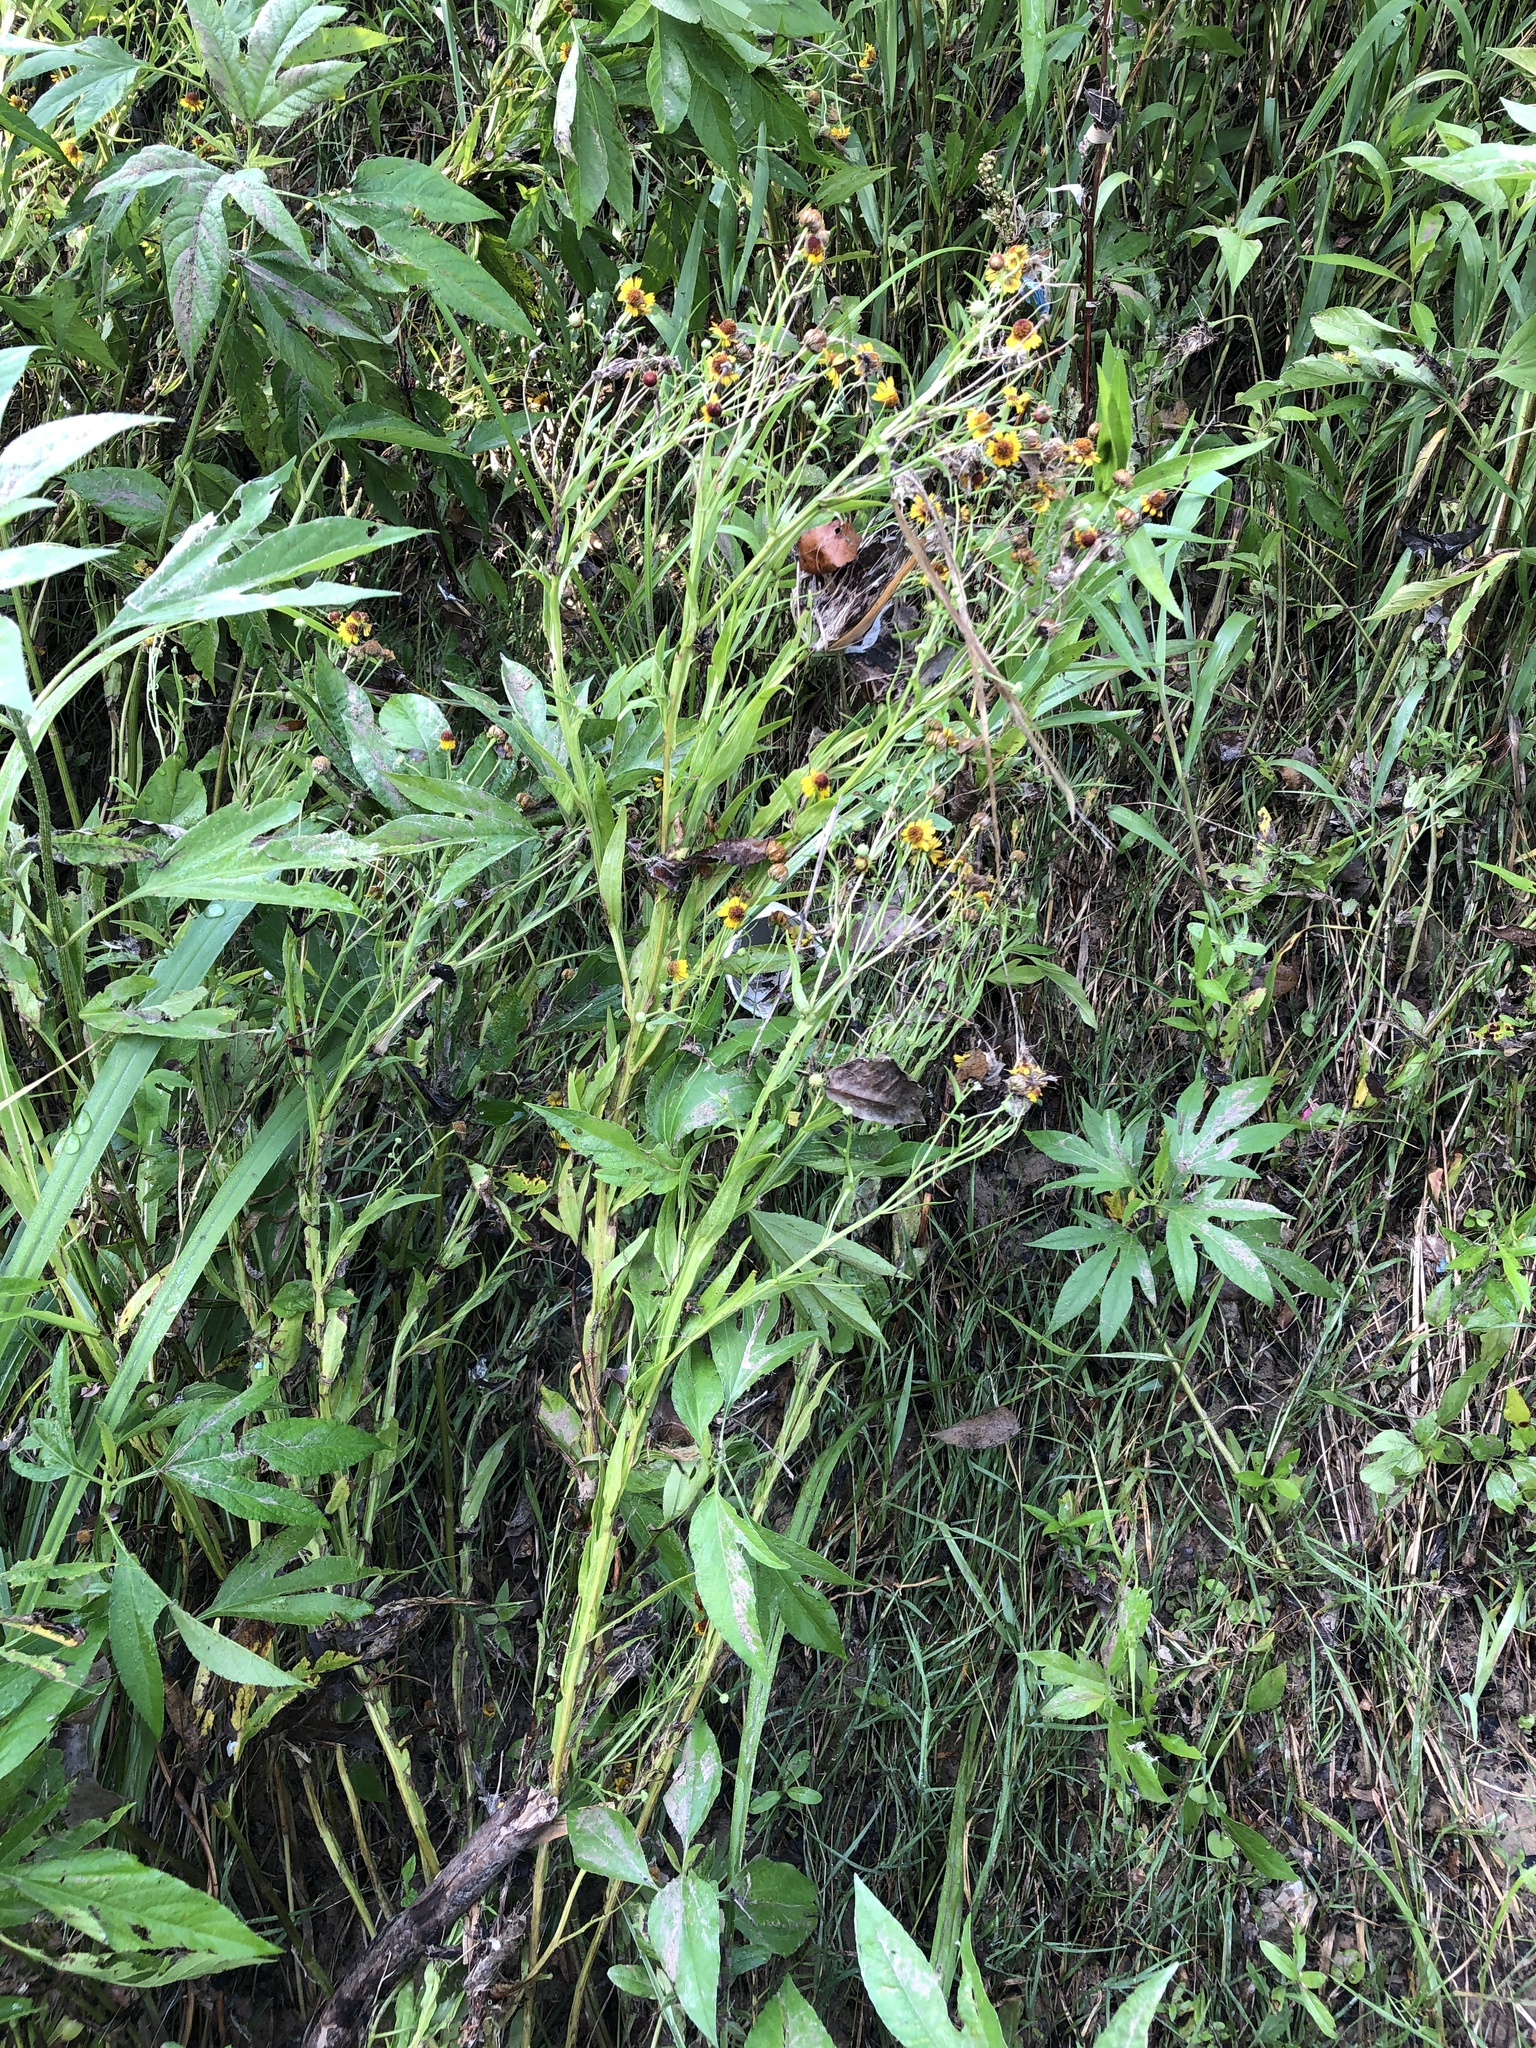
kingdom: Plantae
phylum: Tracheophyta
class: Magnoliopsida
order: Asterales
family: Asteraceae
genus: Helenium
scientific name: Helenium elegans
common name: Pretty sneezeweed
